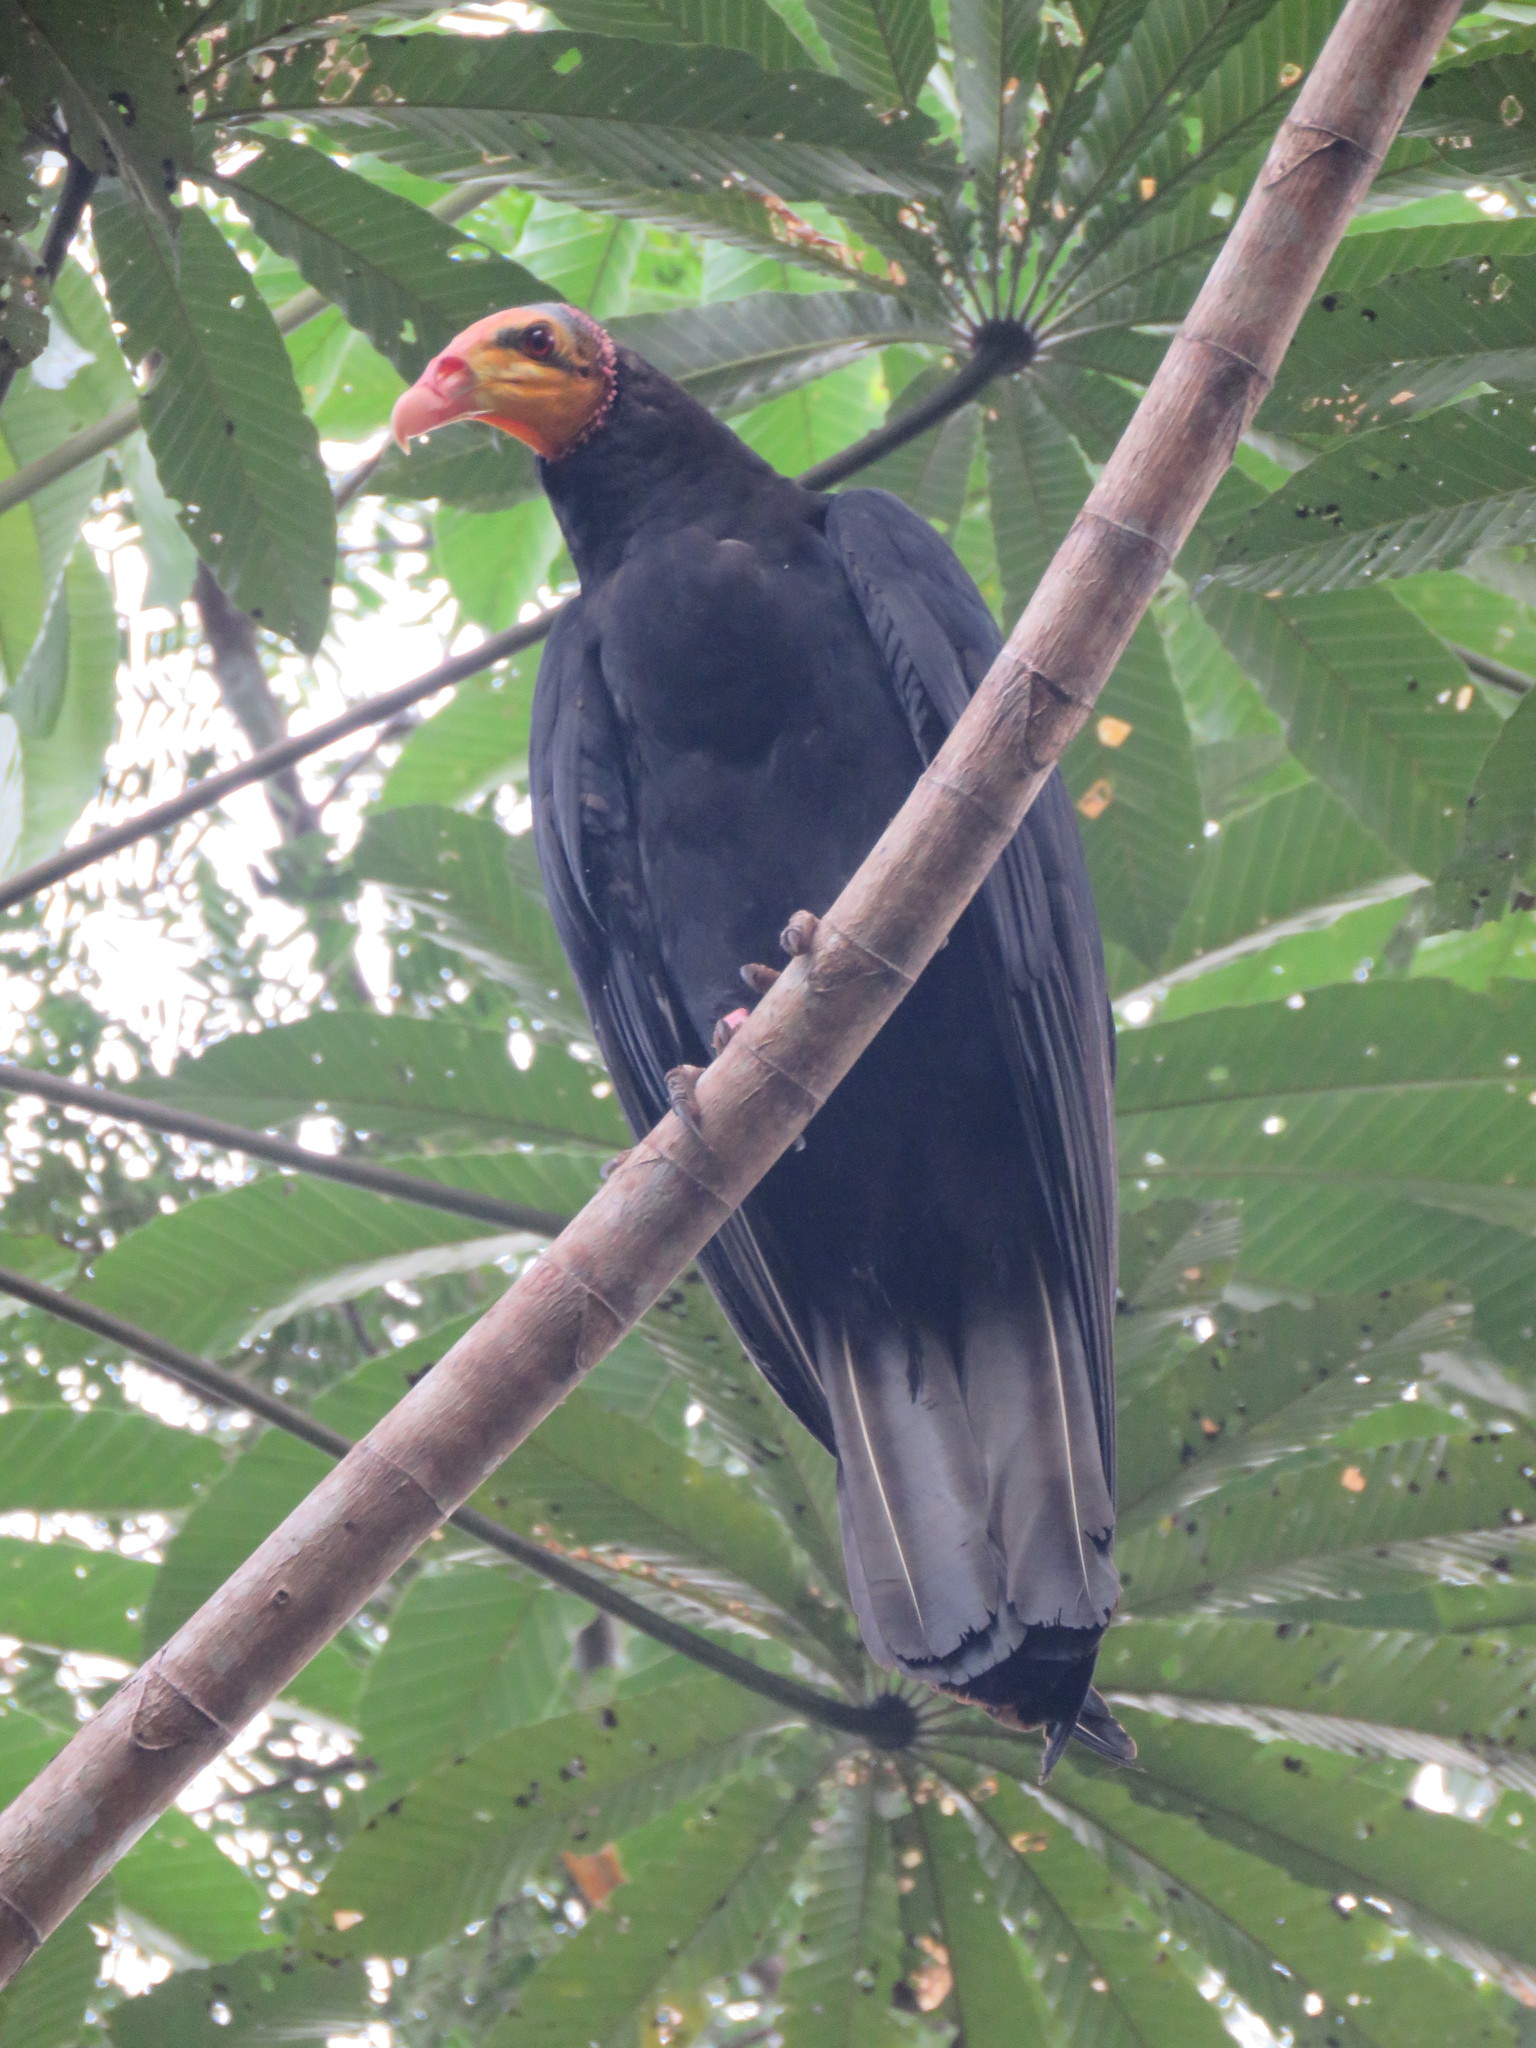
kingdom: Animalia
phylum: Chordata
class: Aves
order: Accipitriformes
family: Cathartidae
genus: Cathartes
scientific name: Cathartes melambrotus
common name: Greater yellow-headed vulture
